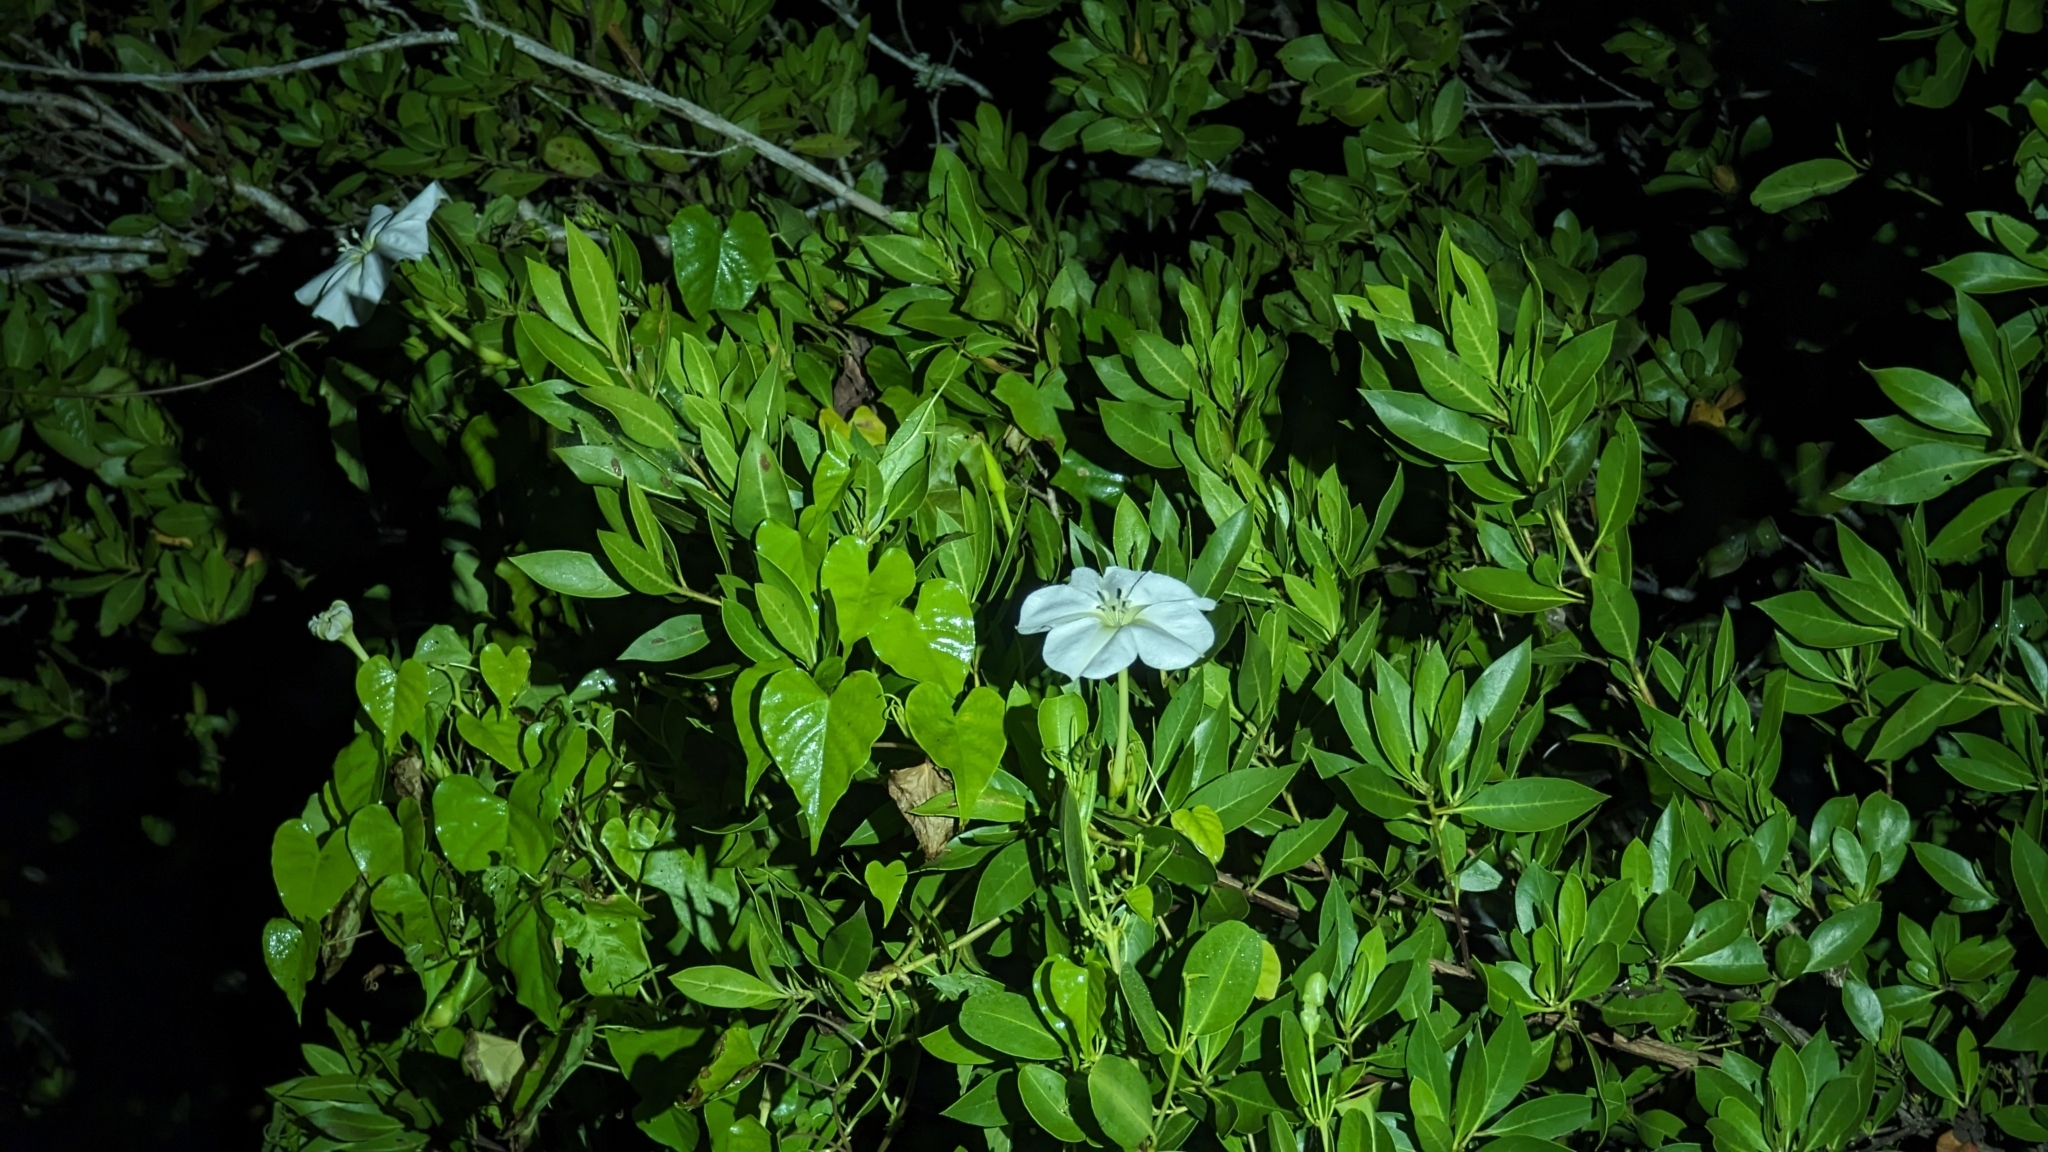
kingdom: Plantae
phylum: Tracheophyta
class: Magnoliopsida
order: Solanales
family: Convolvulaceae
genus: Ipomoea
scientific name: Ipomoea alba
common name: Moonflower
